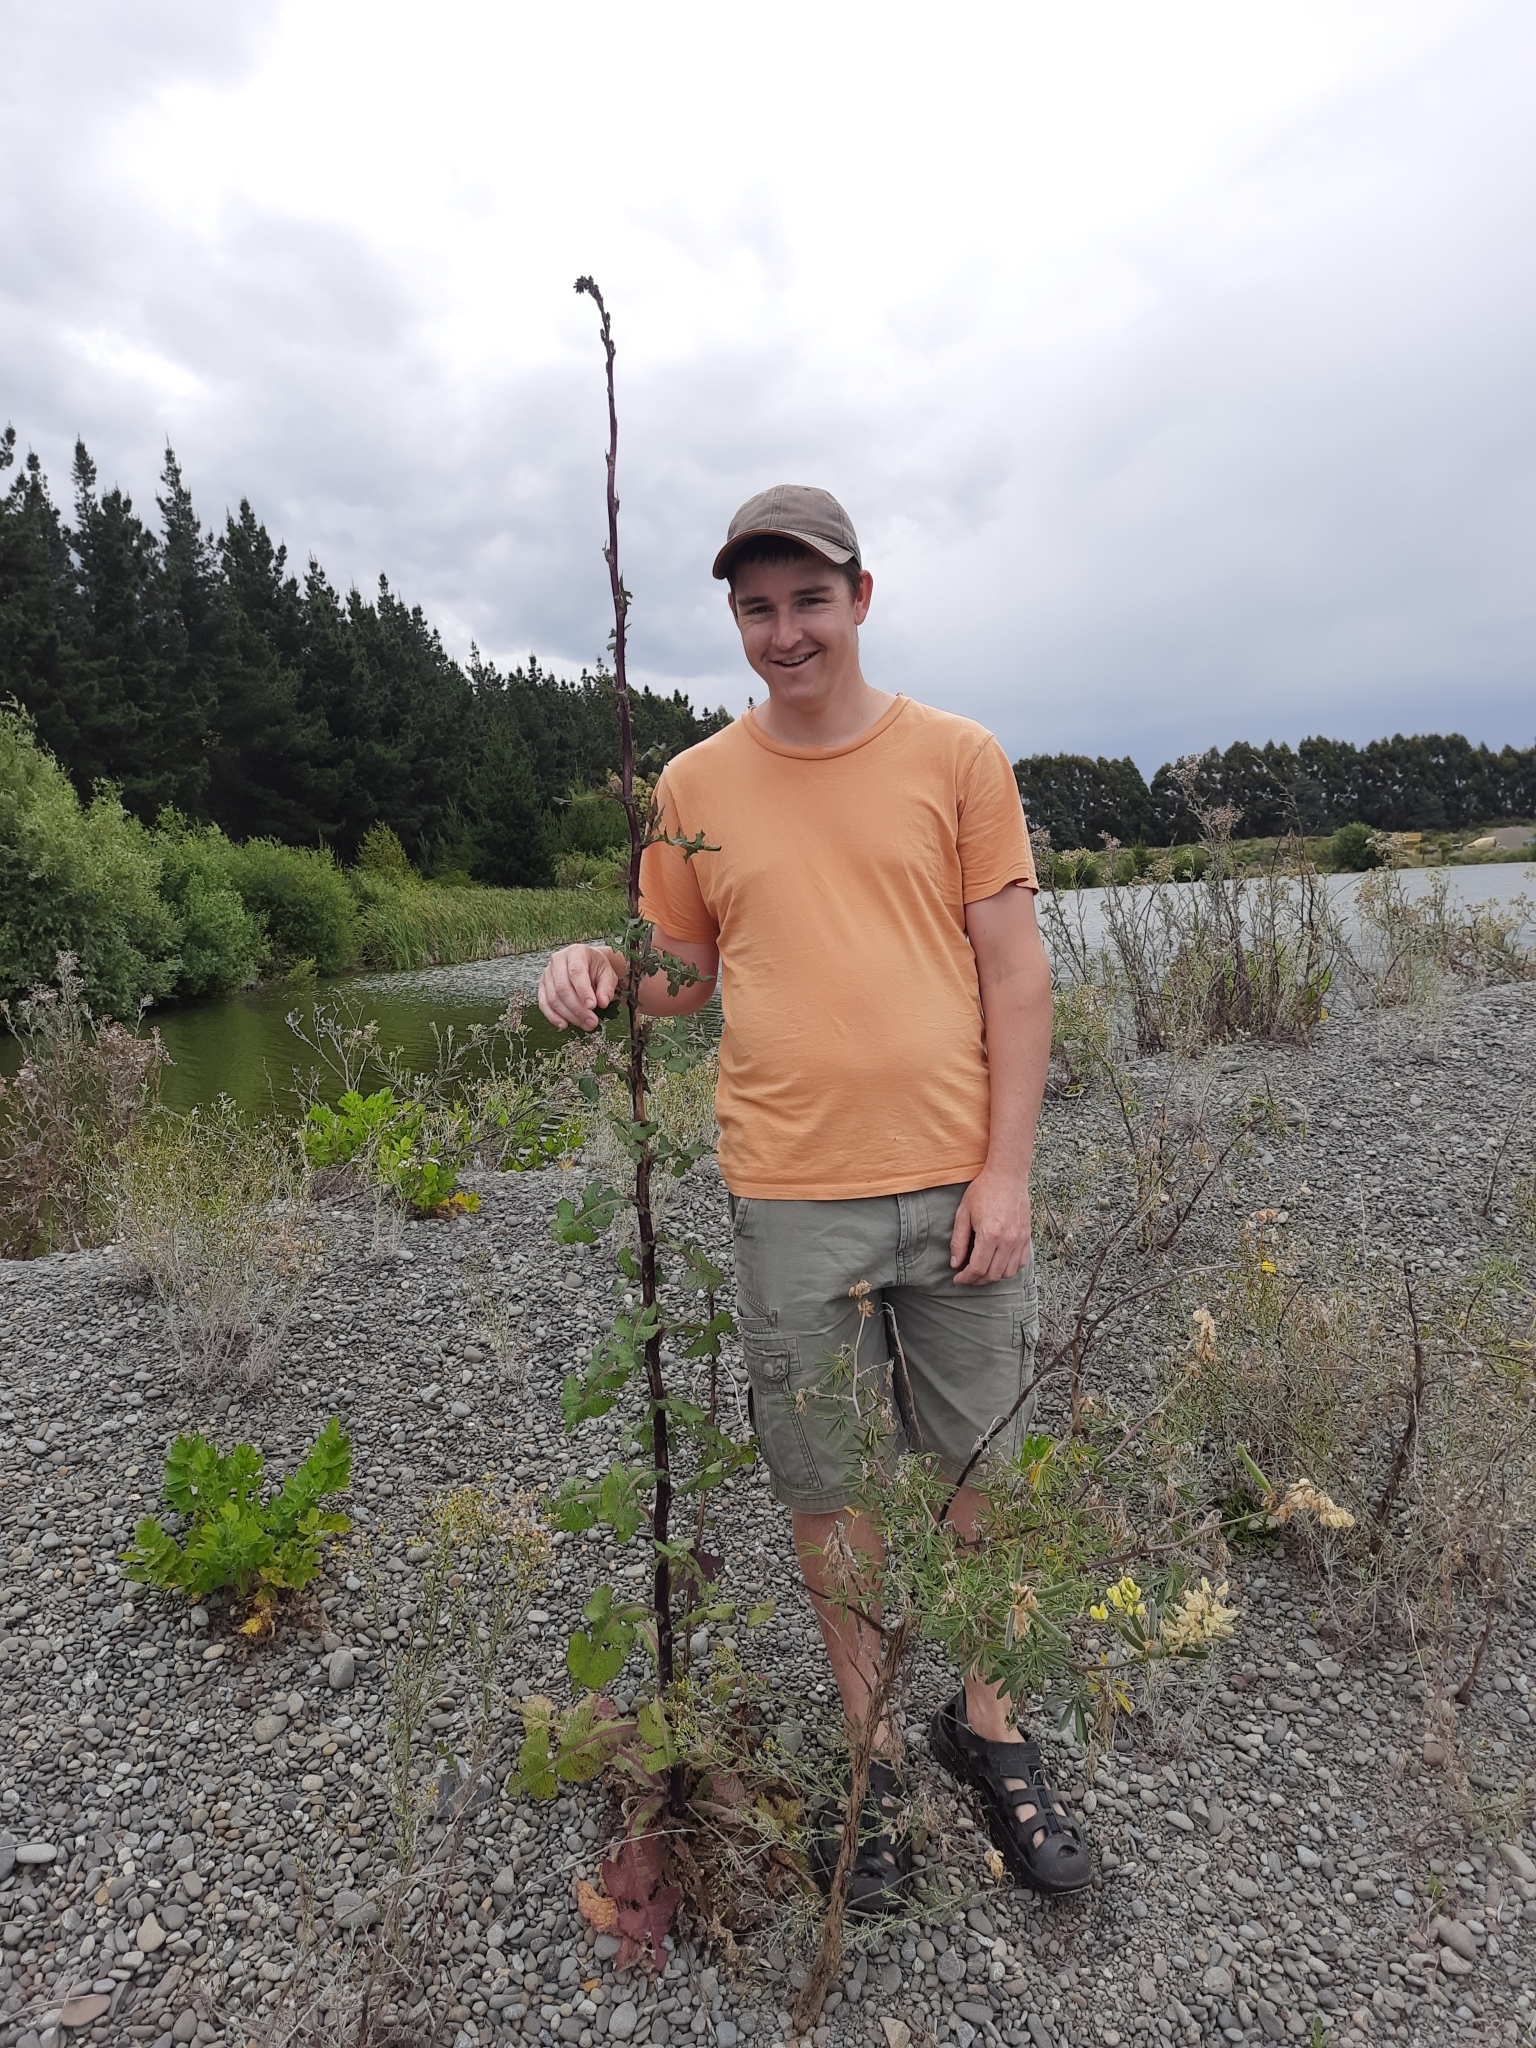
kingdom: Plantae
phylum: Tracheophyta
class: Magnoliopsida
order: Asterales
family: Asteraceae
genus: Lactuca
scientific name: Lactuca virosa
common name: Great lettuce
